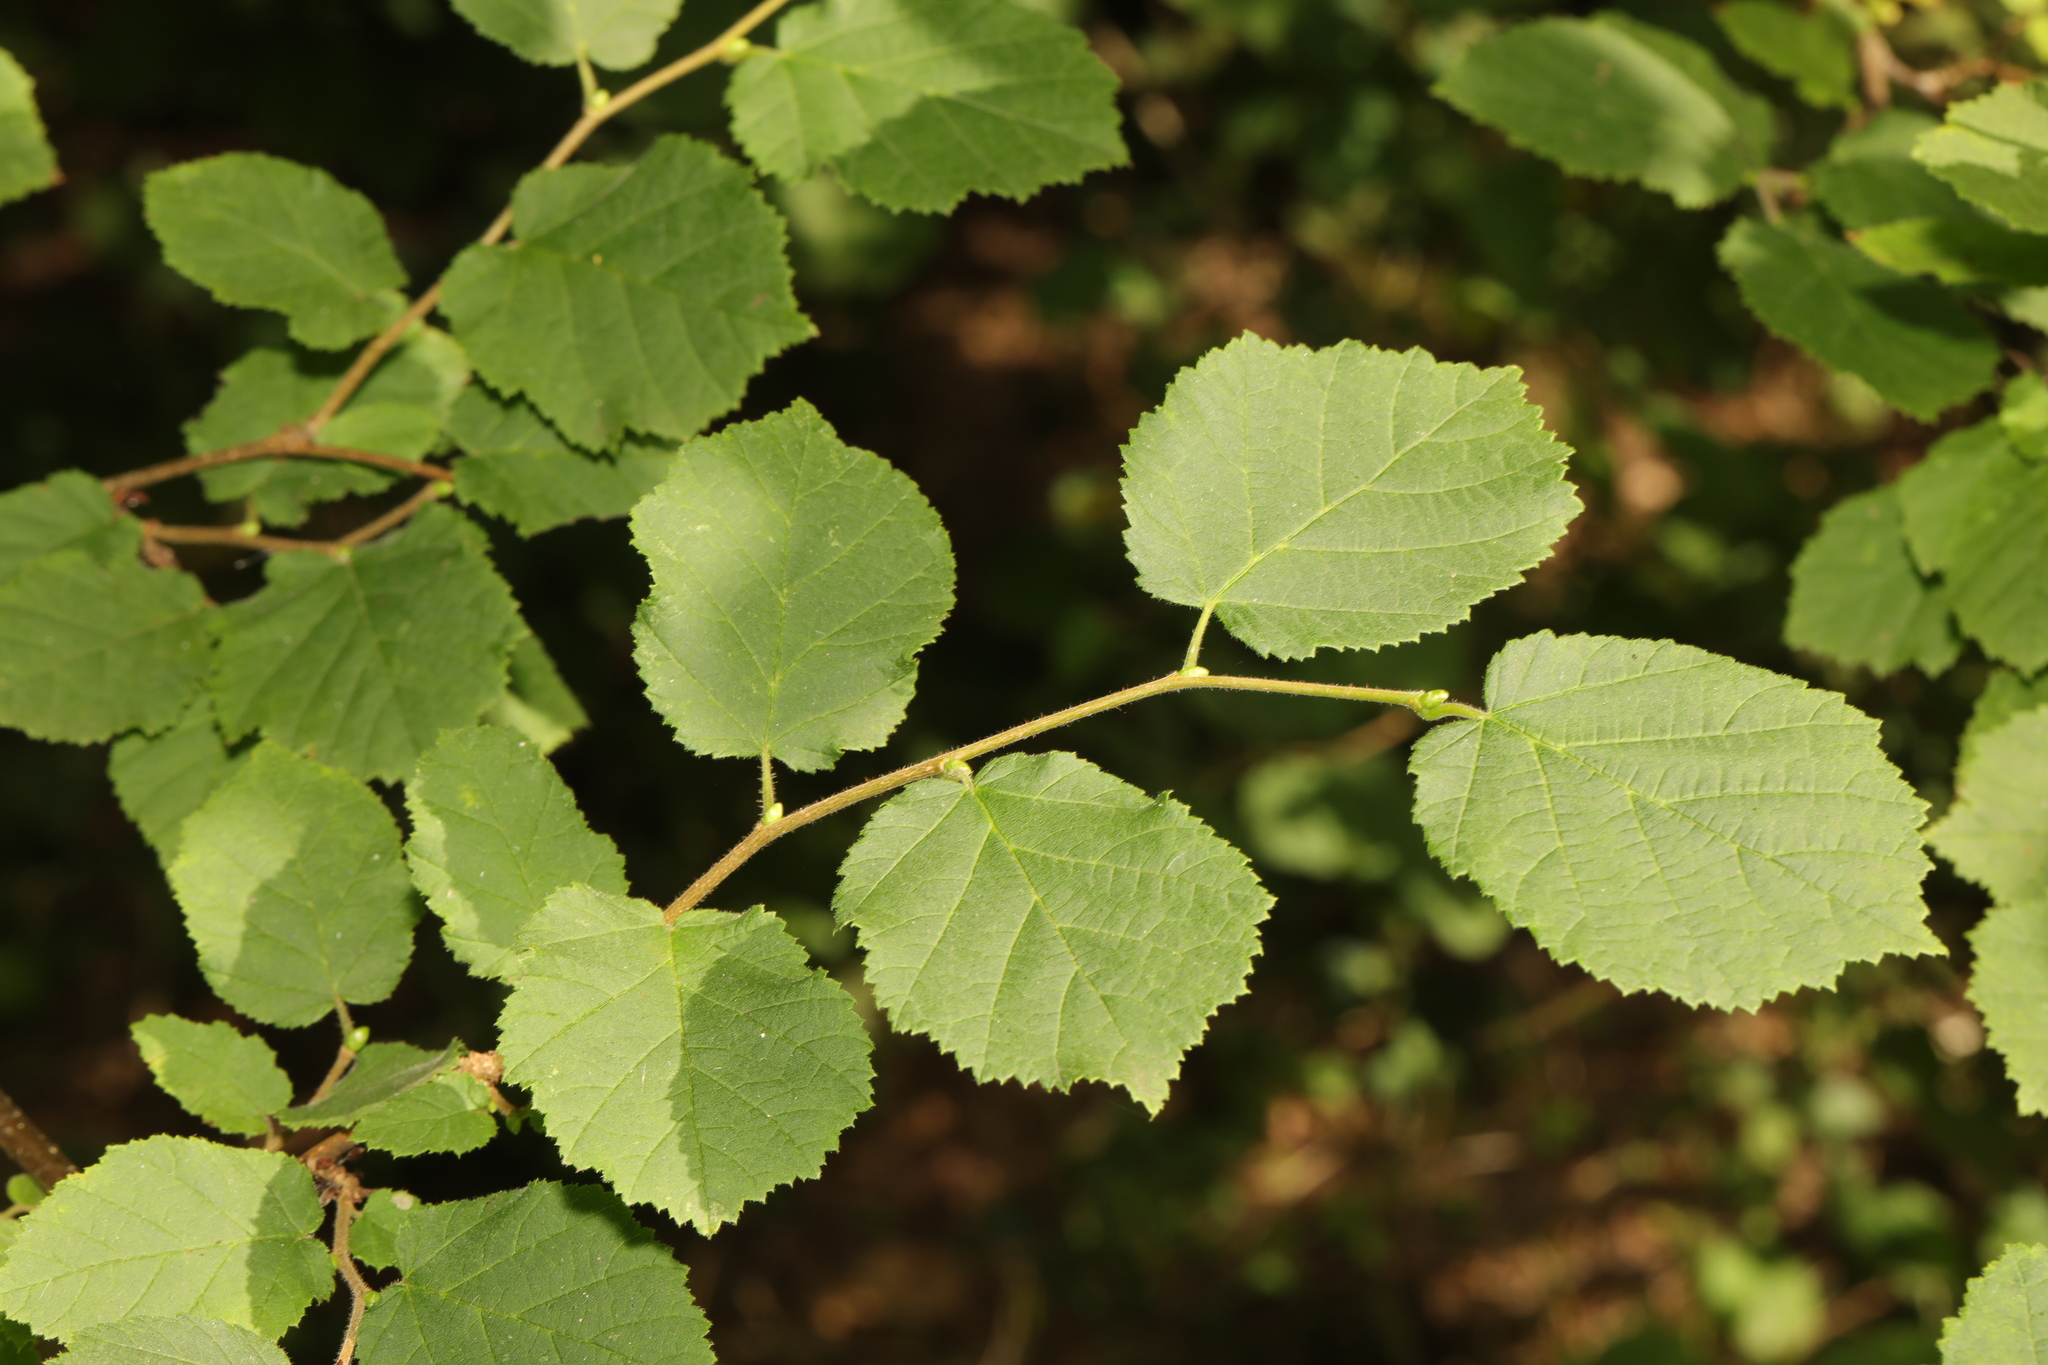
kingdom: Plantae
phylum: Tracheophyta
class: Magnoliopsida
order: Fagales
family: Betulaceae
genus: Corylus
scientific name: Corylus avellana
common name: European hazel
